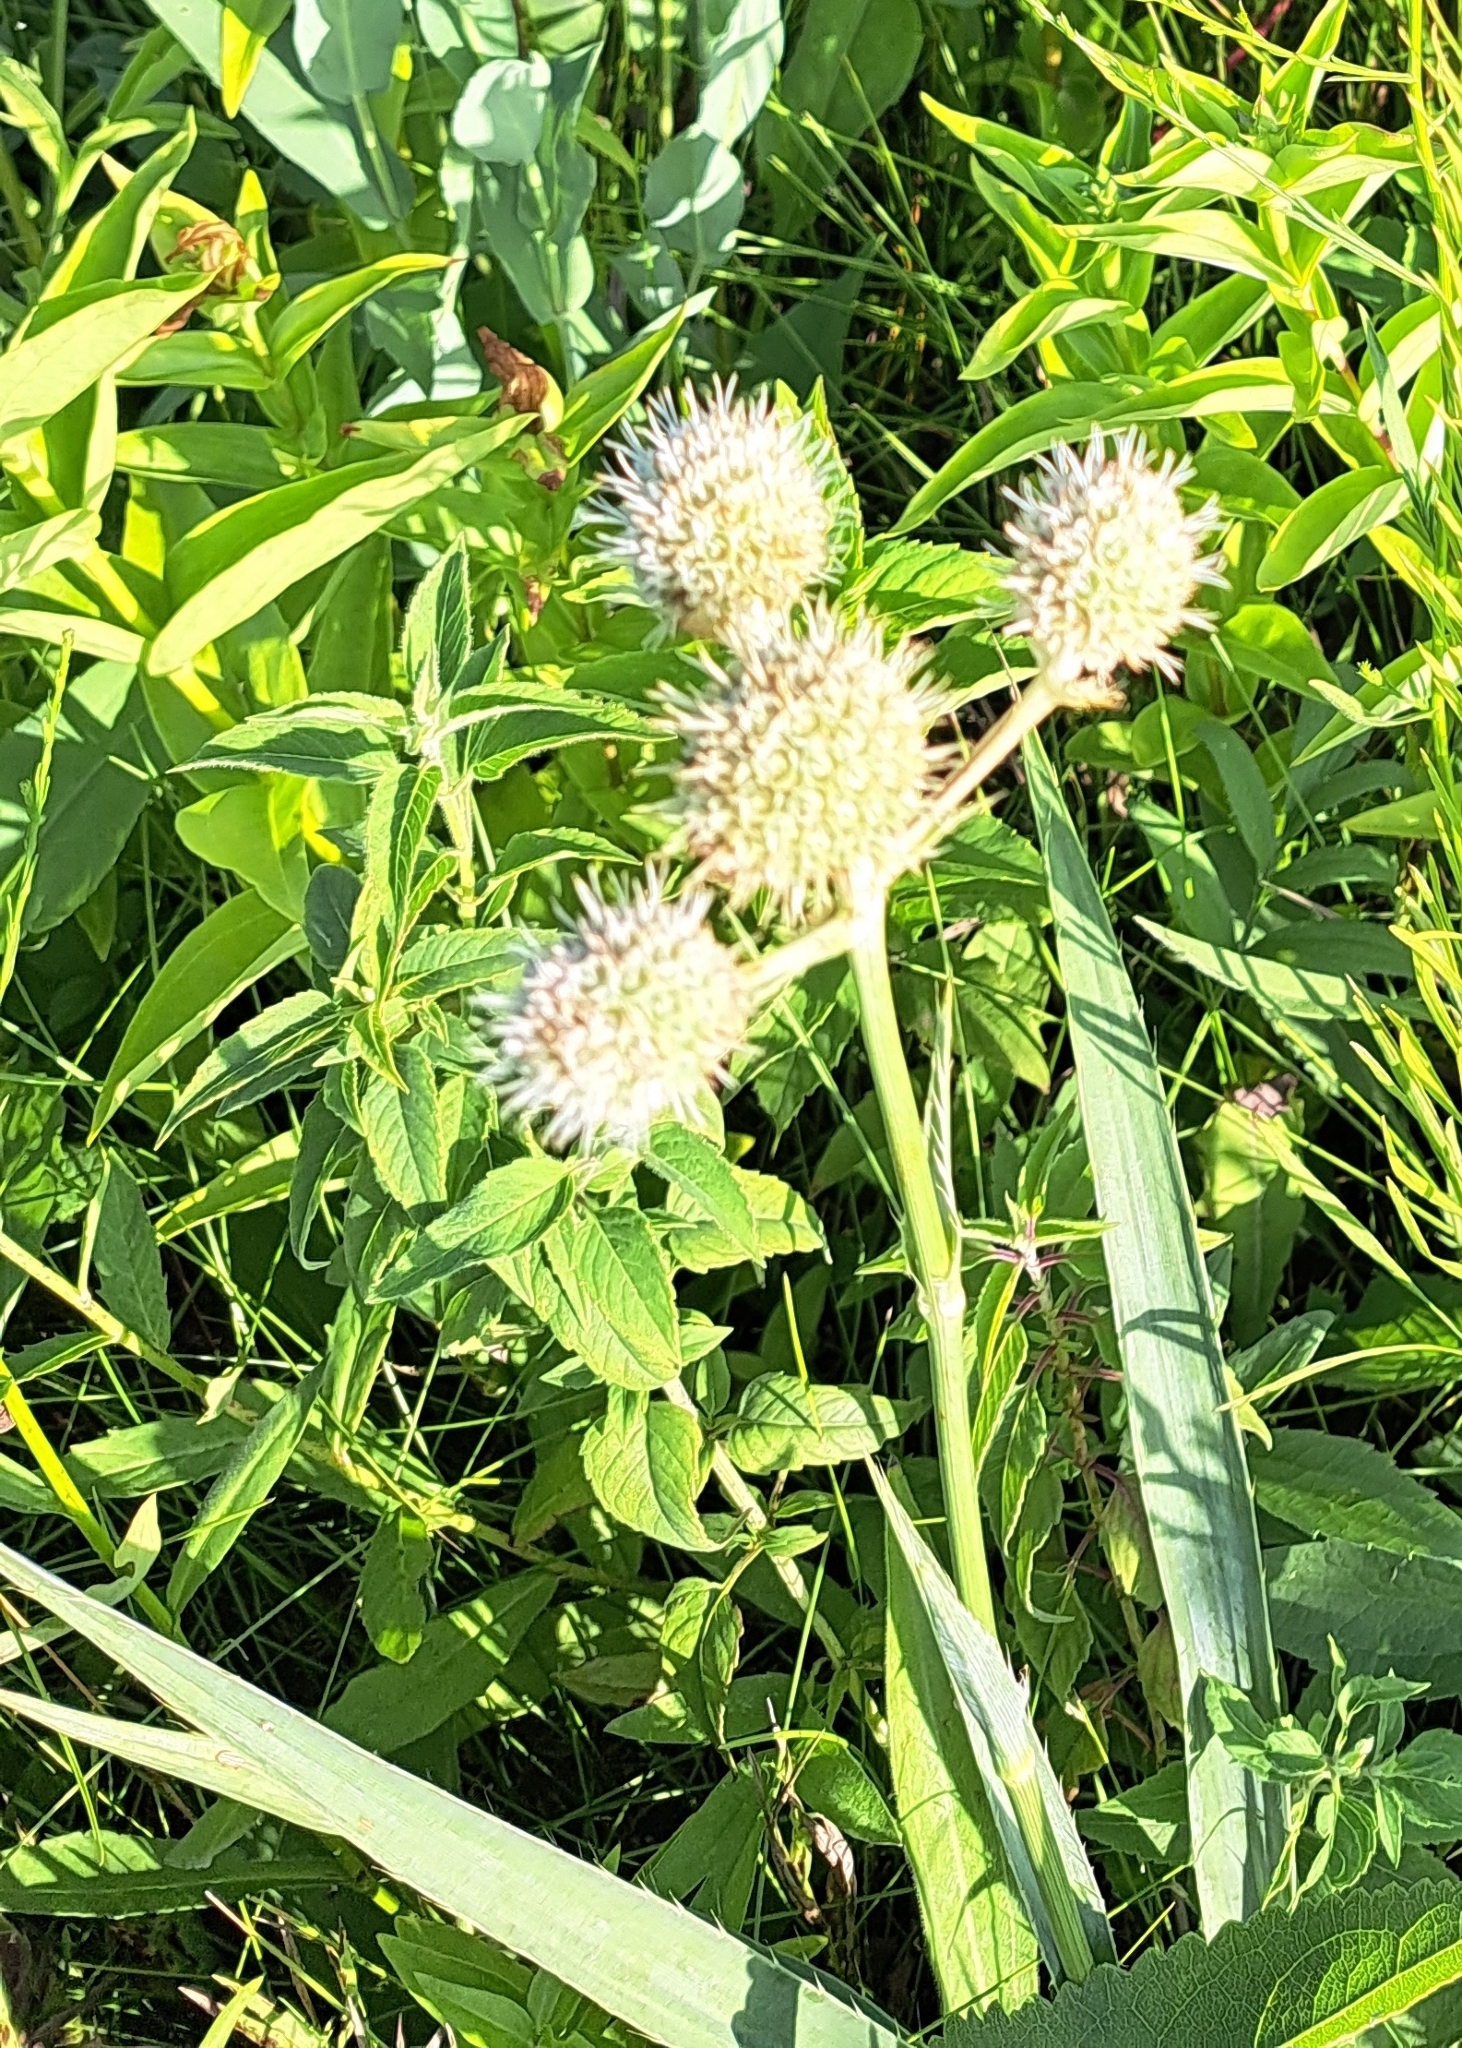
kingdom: Plantae
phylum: Tracheophyta
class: Magnoliopsida
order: Apiales
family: Apiaceae
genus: Eryngium
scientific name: Eryngium yuccifolium
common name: Button eryngo
